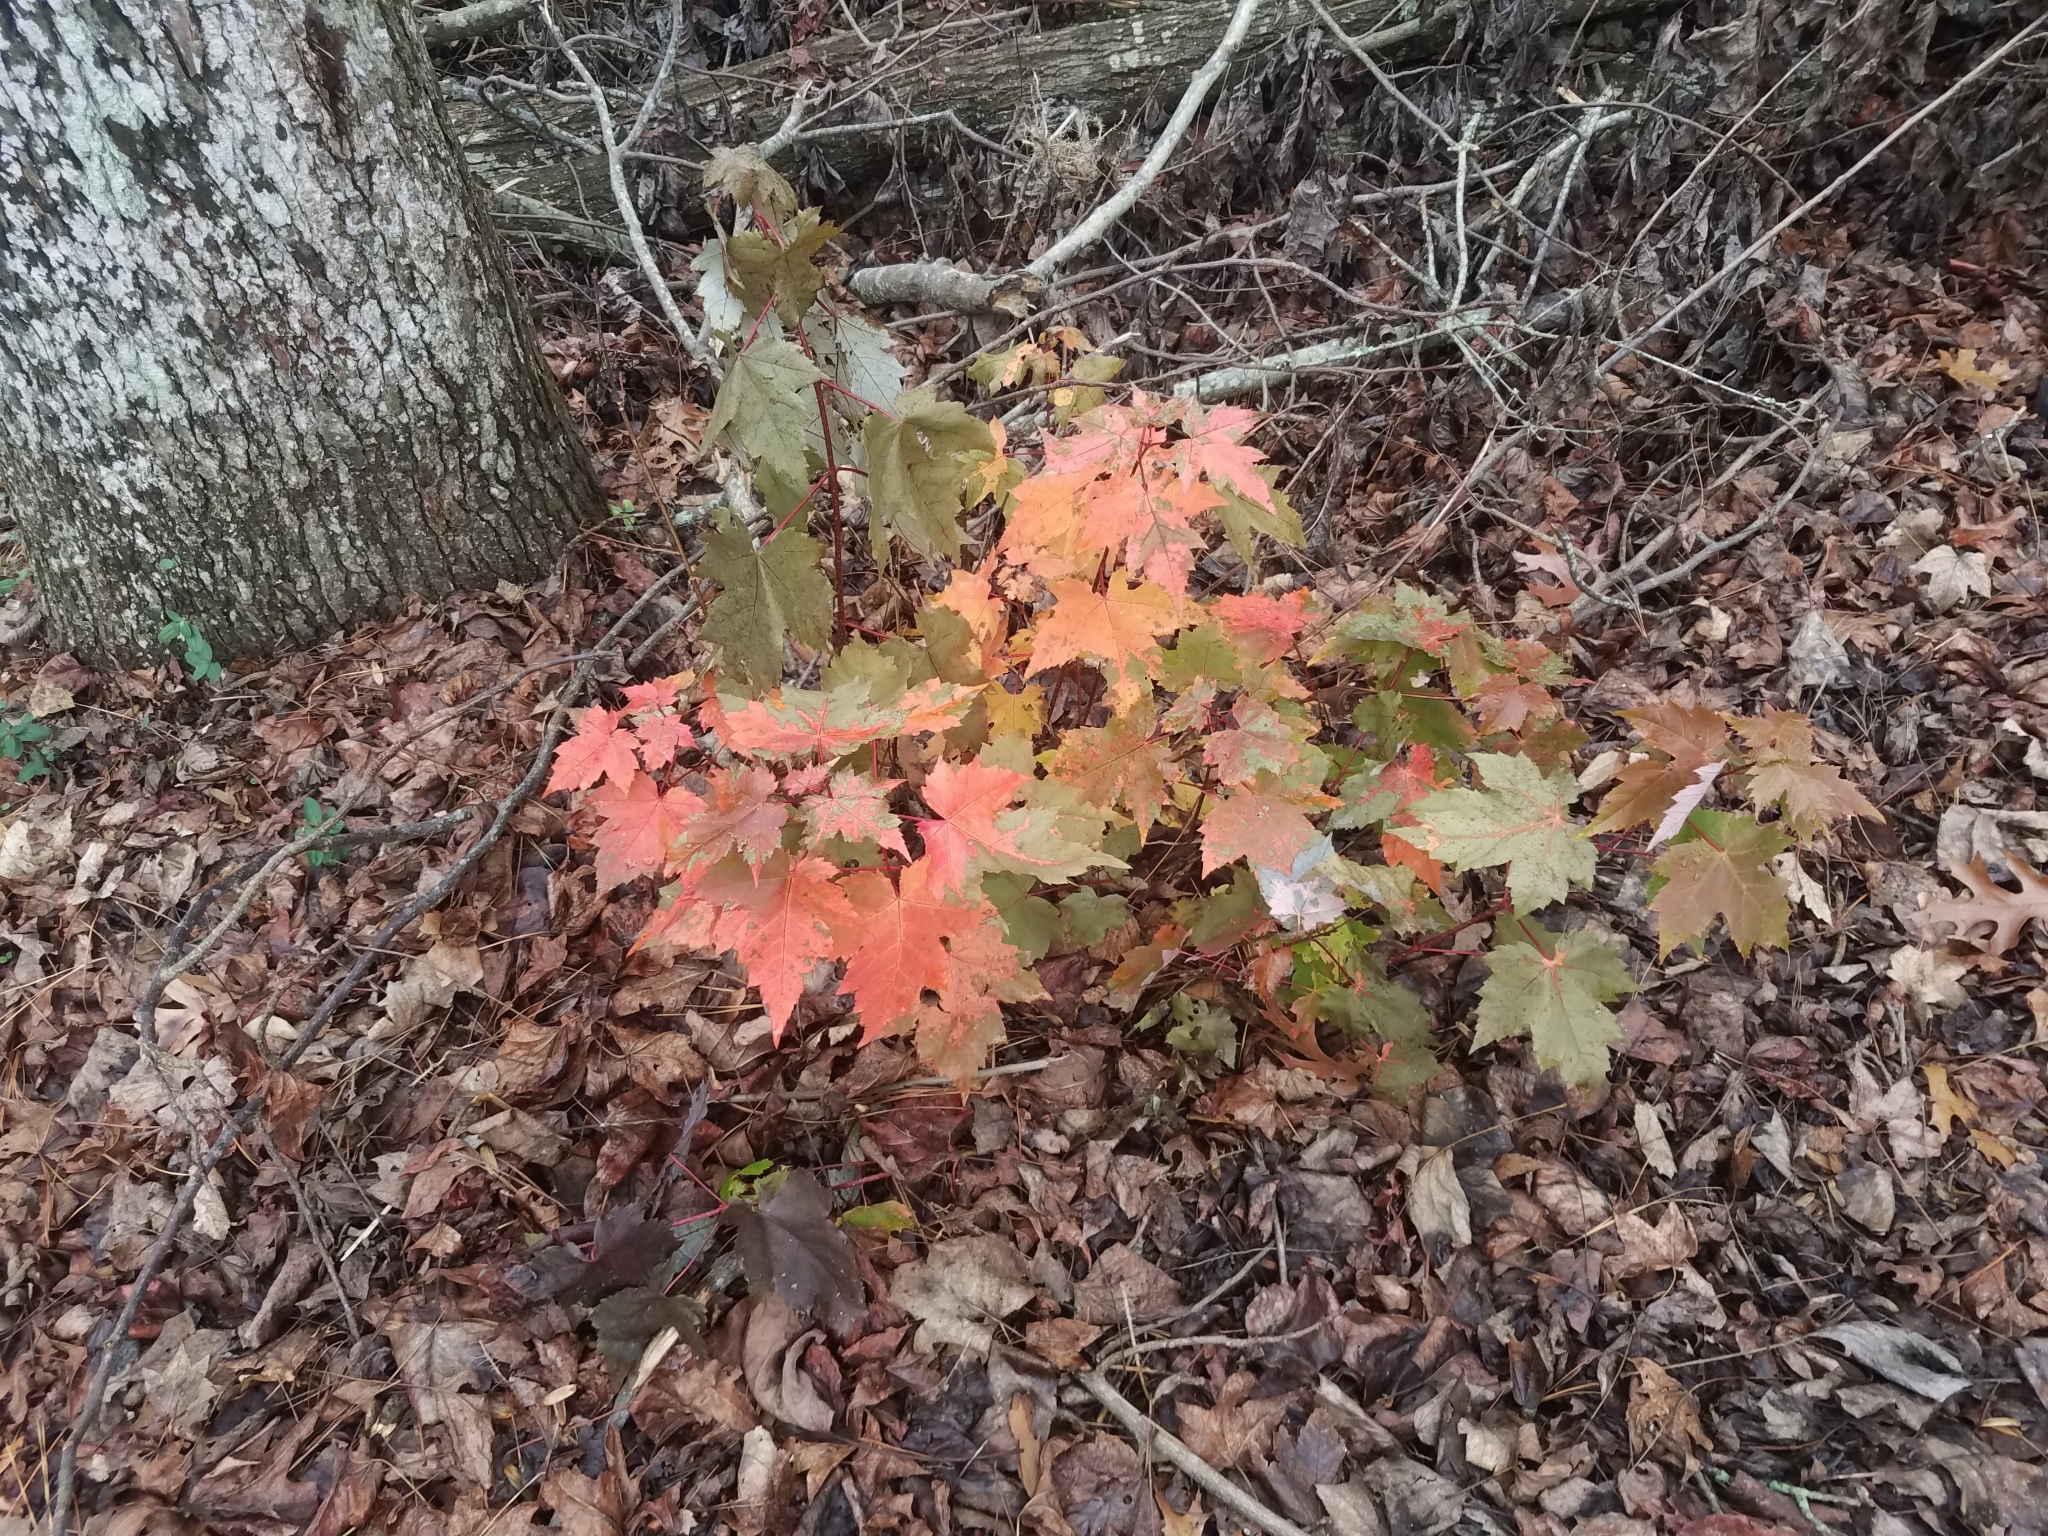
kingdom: Plantae
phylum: Tracheophyta
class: Magnoliopsida
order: Sapindales
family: Sapindaceae
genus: Acer
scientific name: Acer rubrum
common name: Red maple
